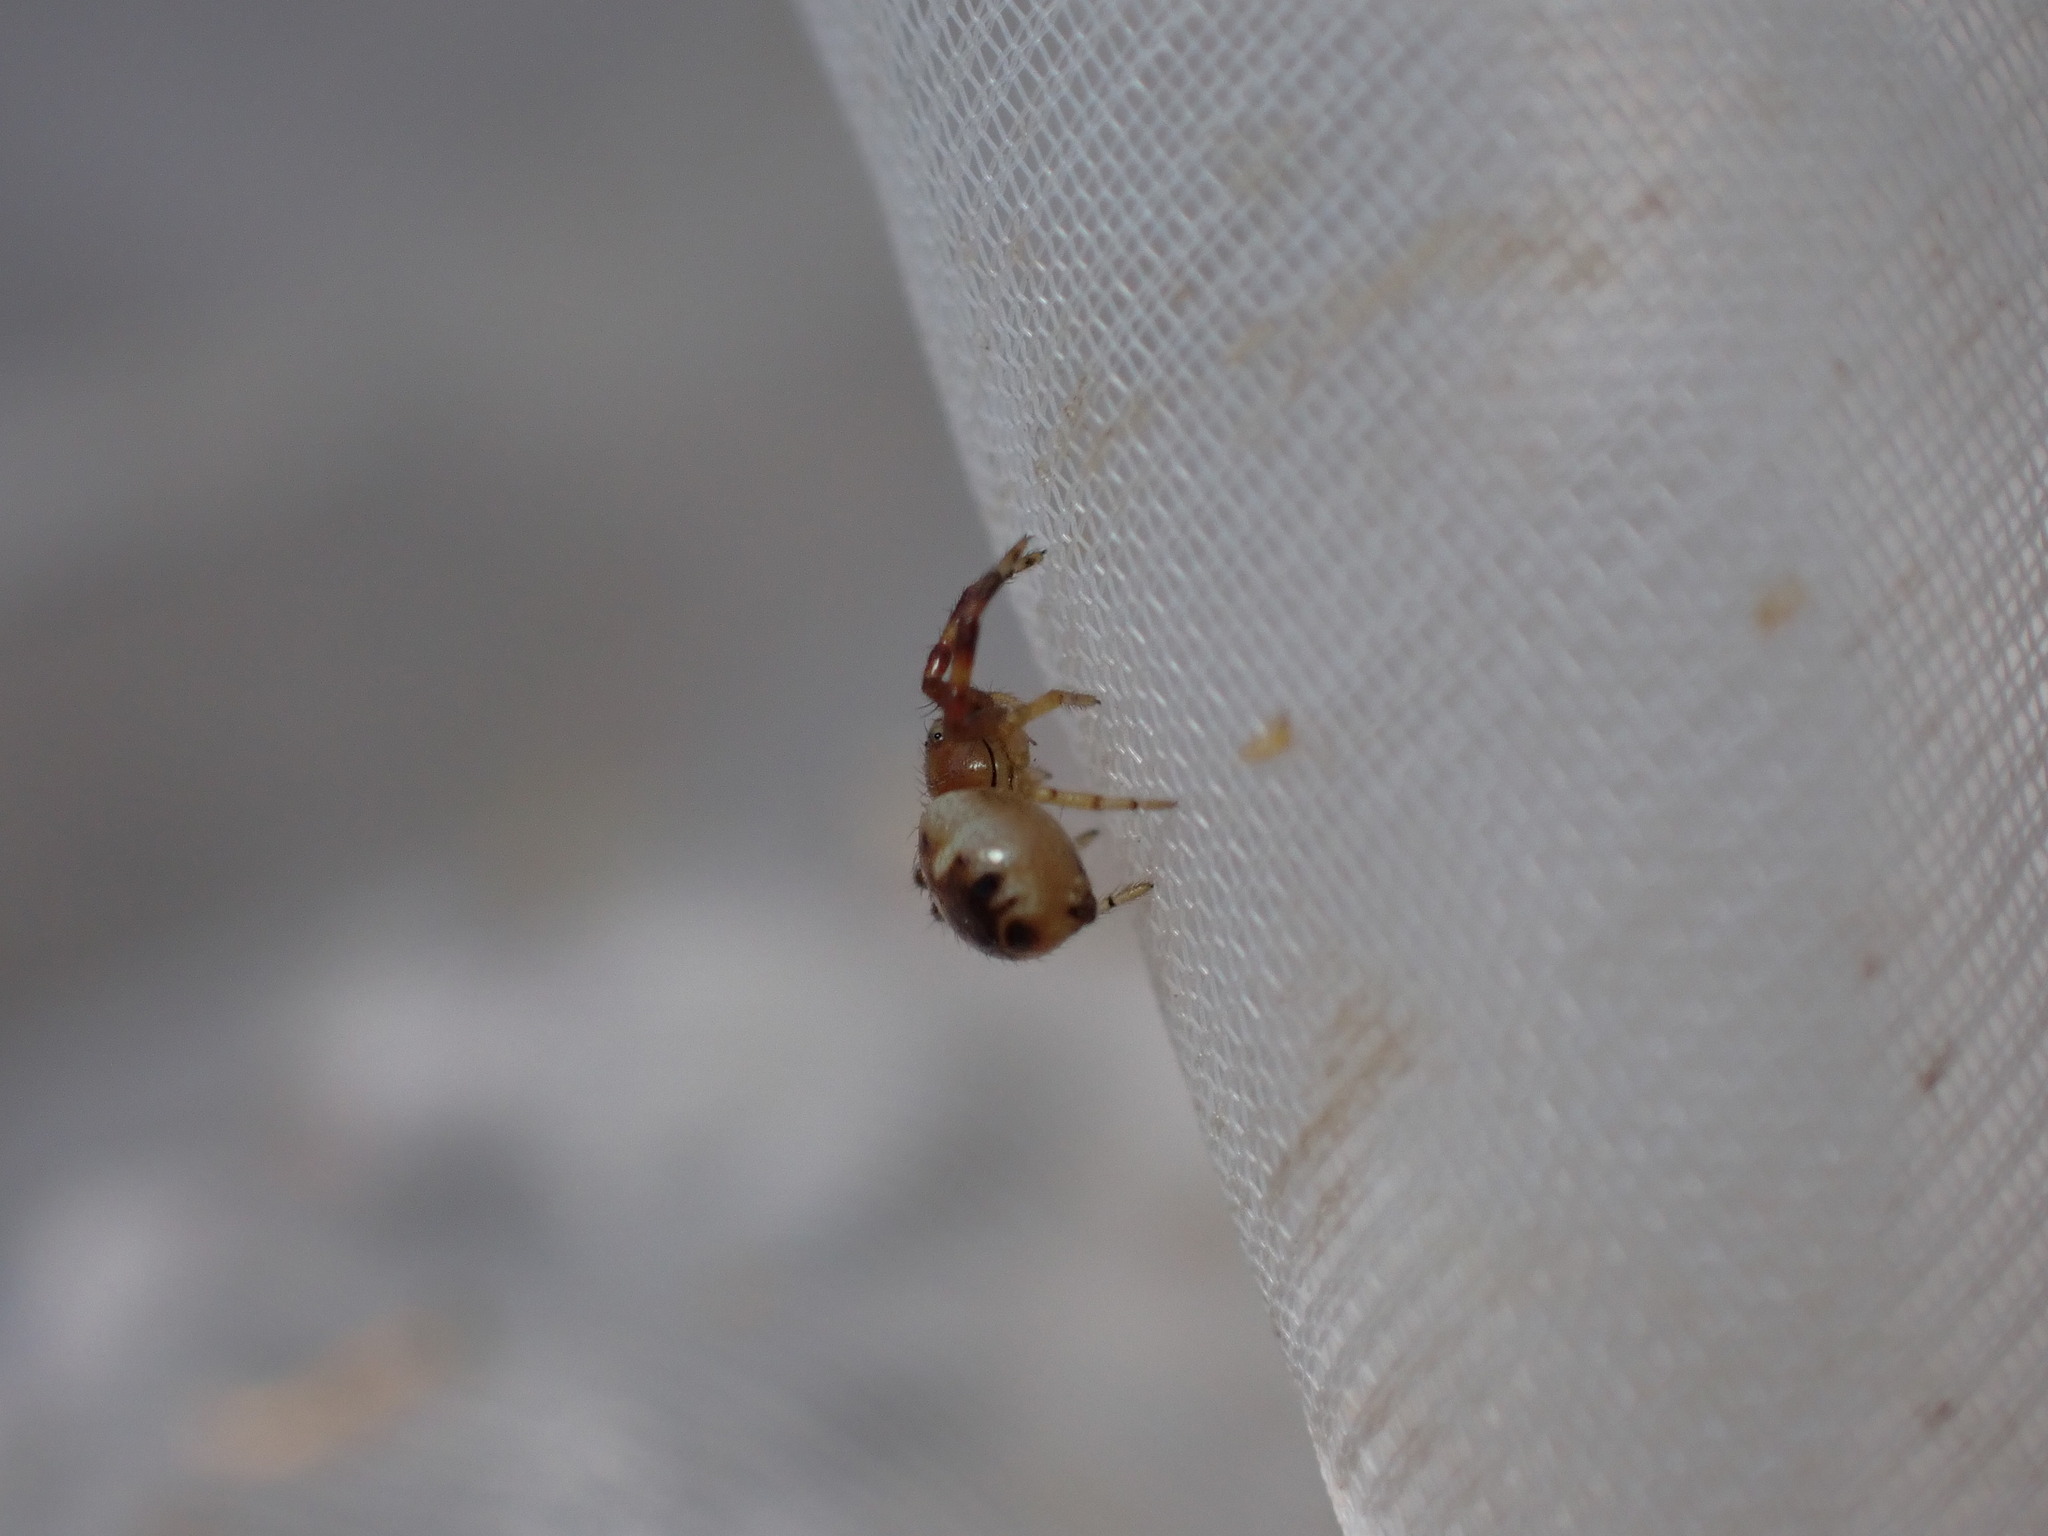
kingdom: Animalia
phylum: Arthropoda
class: Arachnida
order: Araneae
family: Thomisidae
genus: Synema
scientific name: Synema globosum
